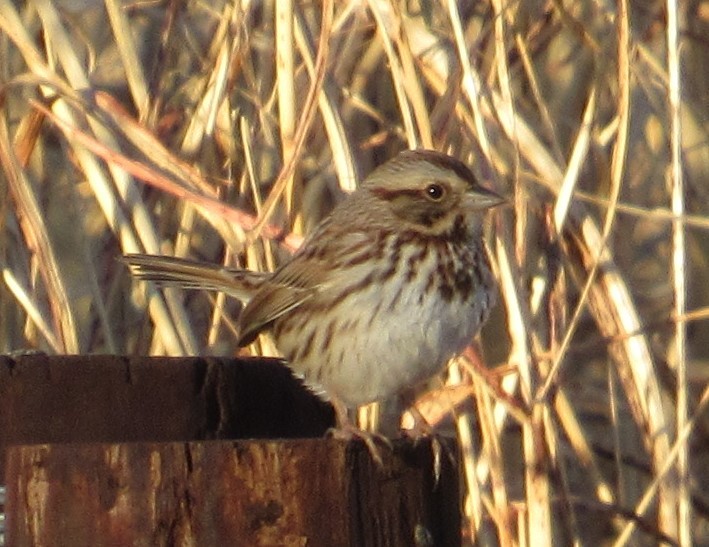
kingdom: Animalia
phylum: Chordata
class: Aves
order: Passeriformes
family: Passerellidae
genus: Melospiza
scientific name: Melospiza melodia
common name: Song sparrow
